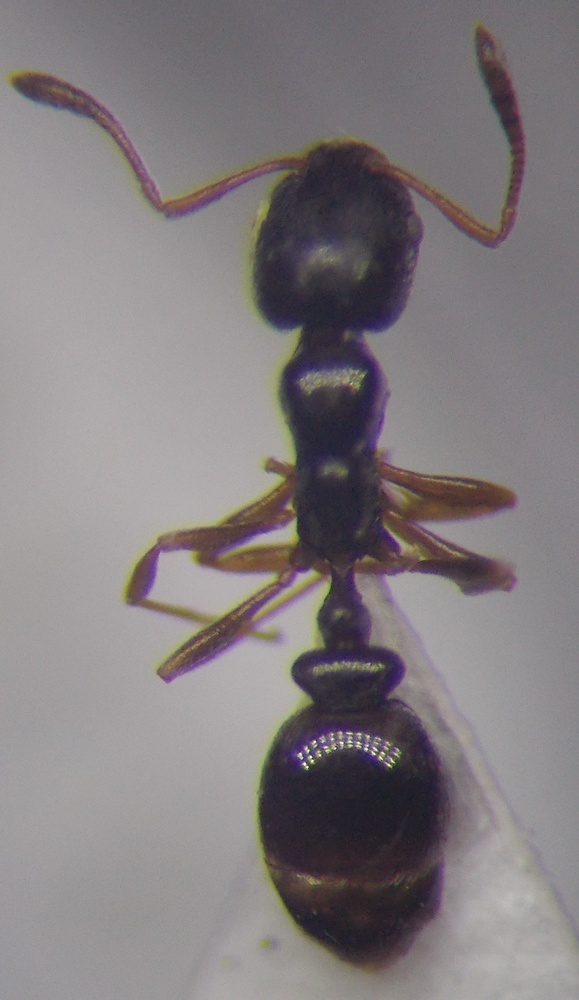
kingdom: Animalia
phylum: Arthropoda
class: Insecta
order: Hymenoptera
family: Formicidae
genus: Cardiocondyla
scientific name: Cardiocondyla stambuloffii
